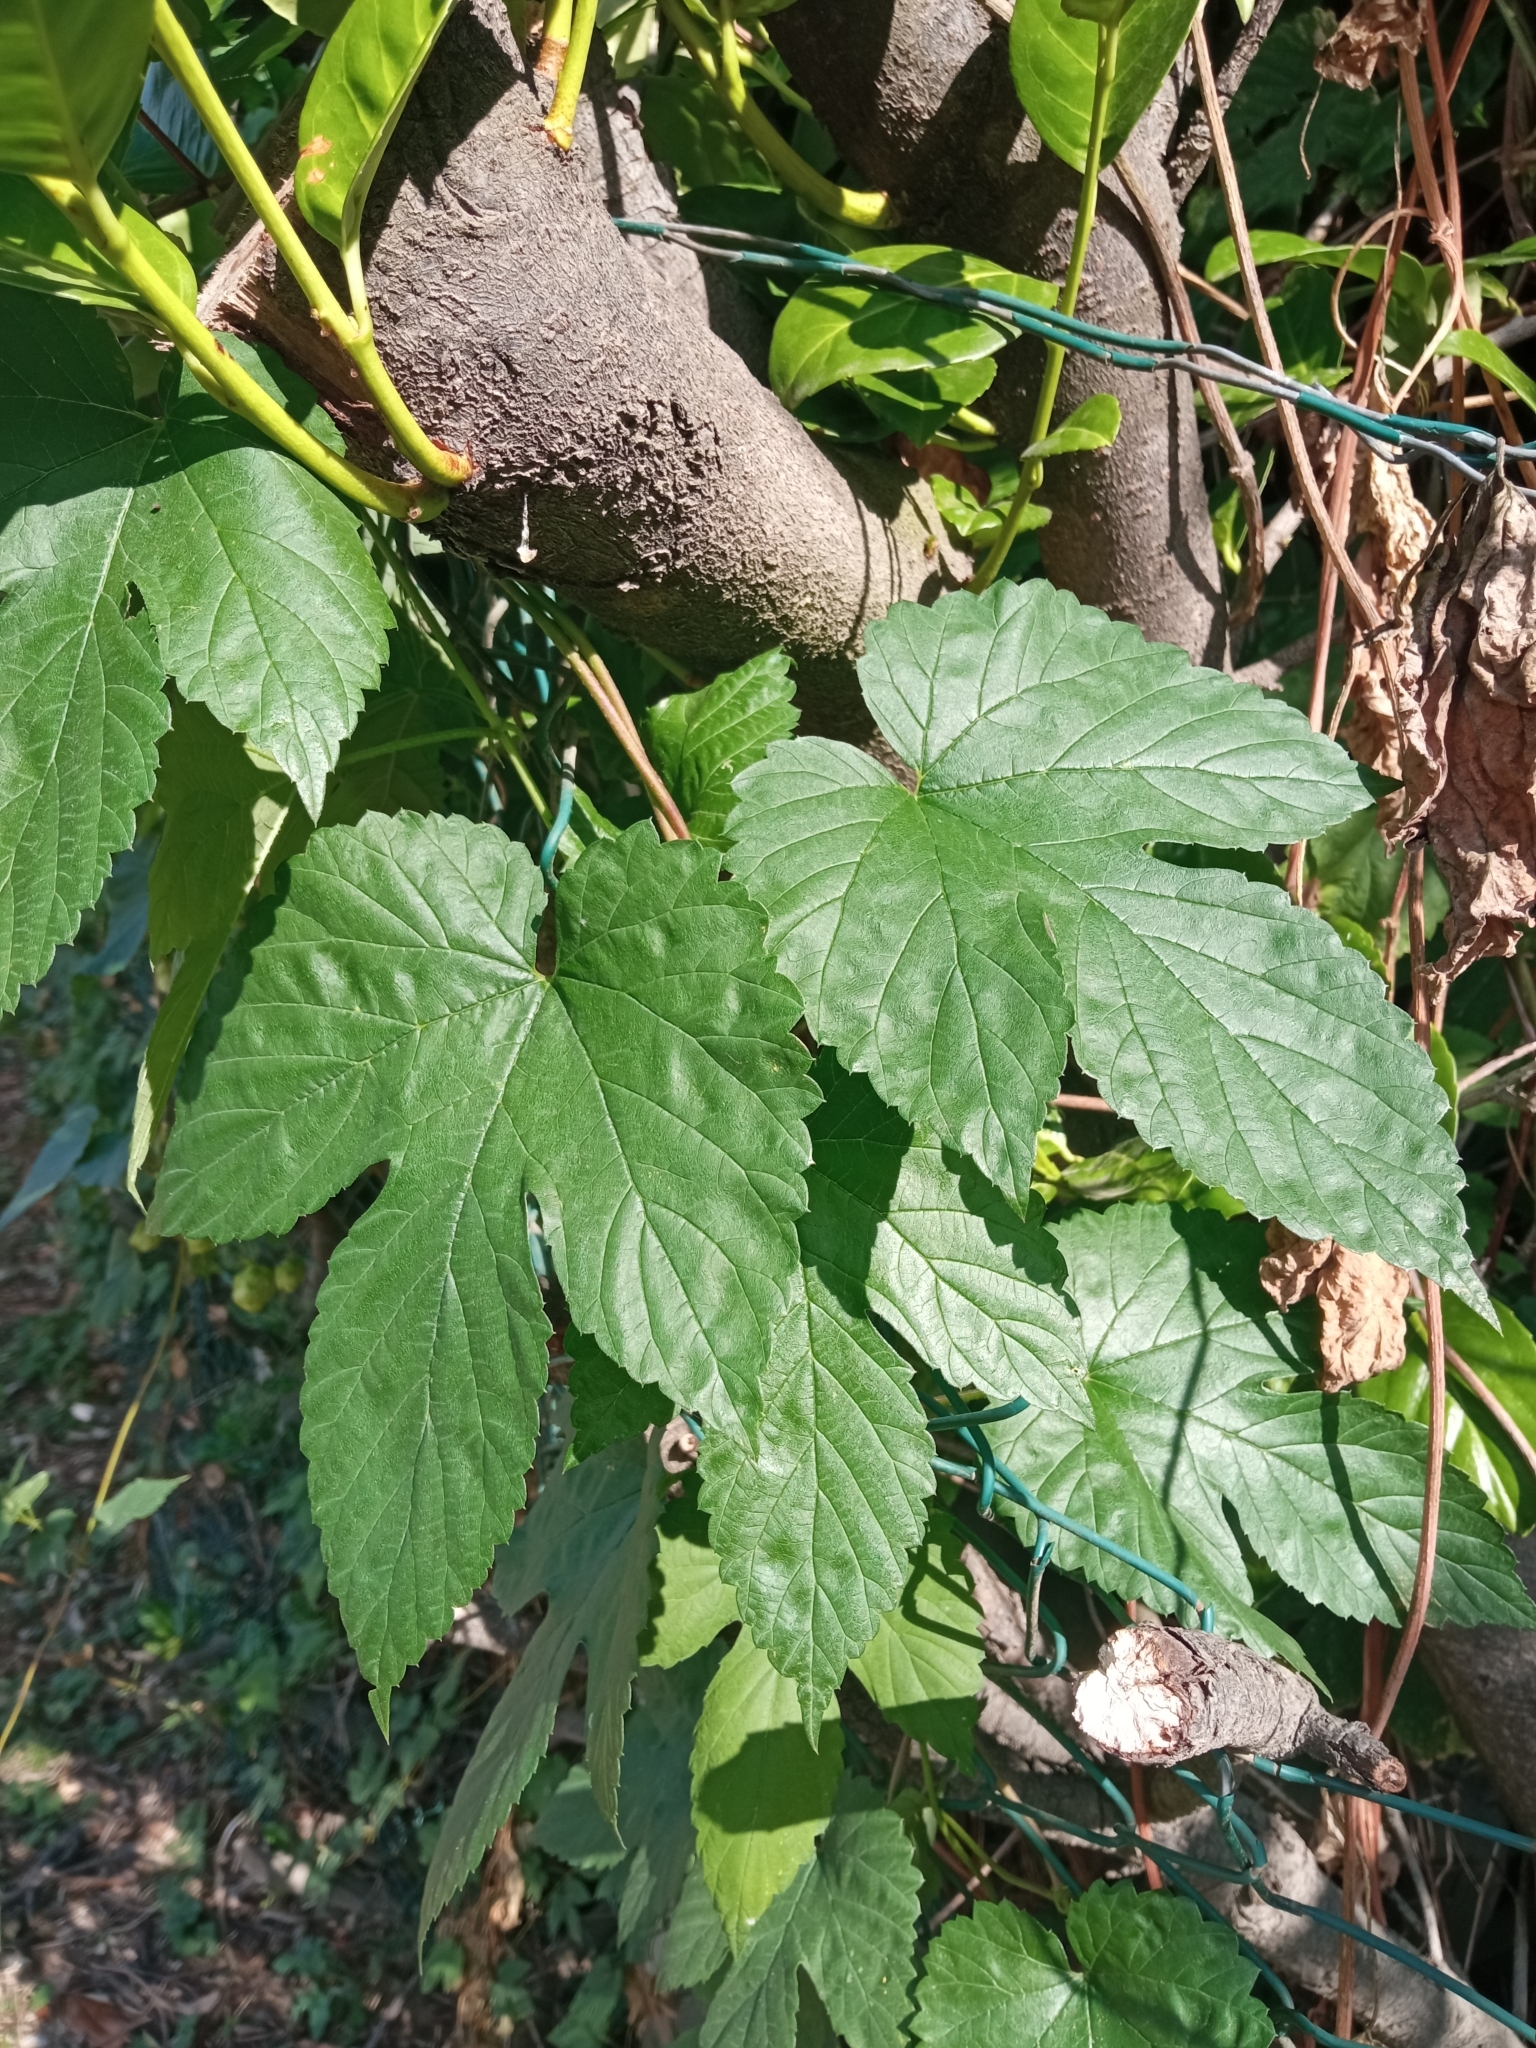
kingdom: Plantae
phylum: Tracheophyta
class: Magnoliopsida
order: Rosales
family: Cannabaceae
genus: Humulus
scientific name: Humulus lupulus
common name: Hop
